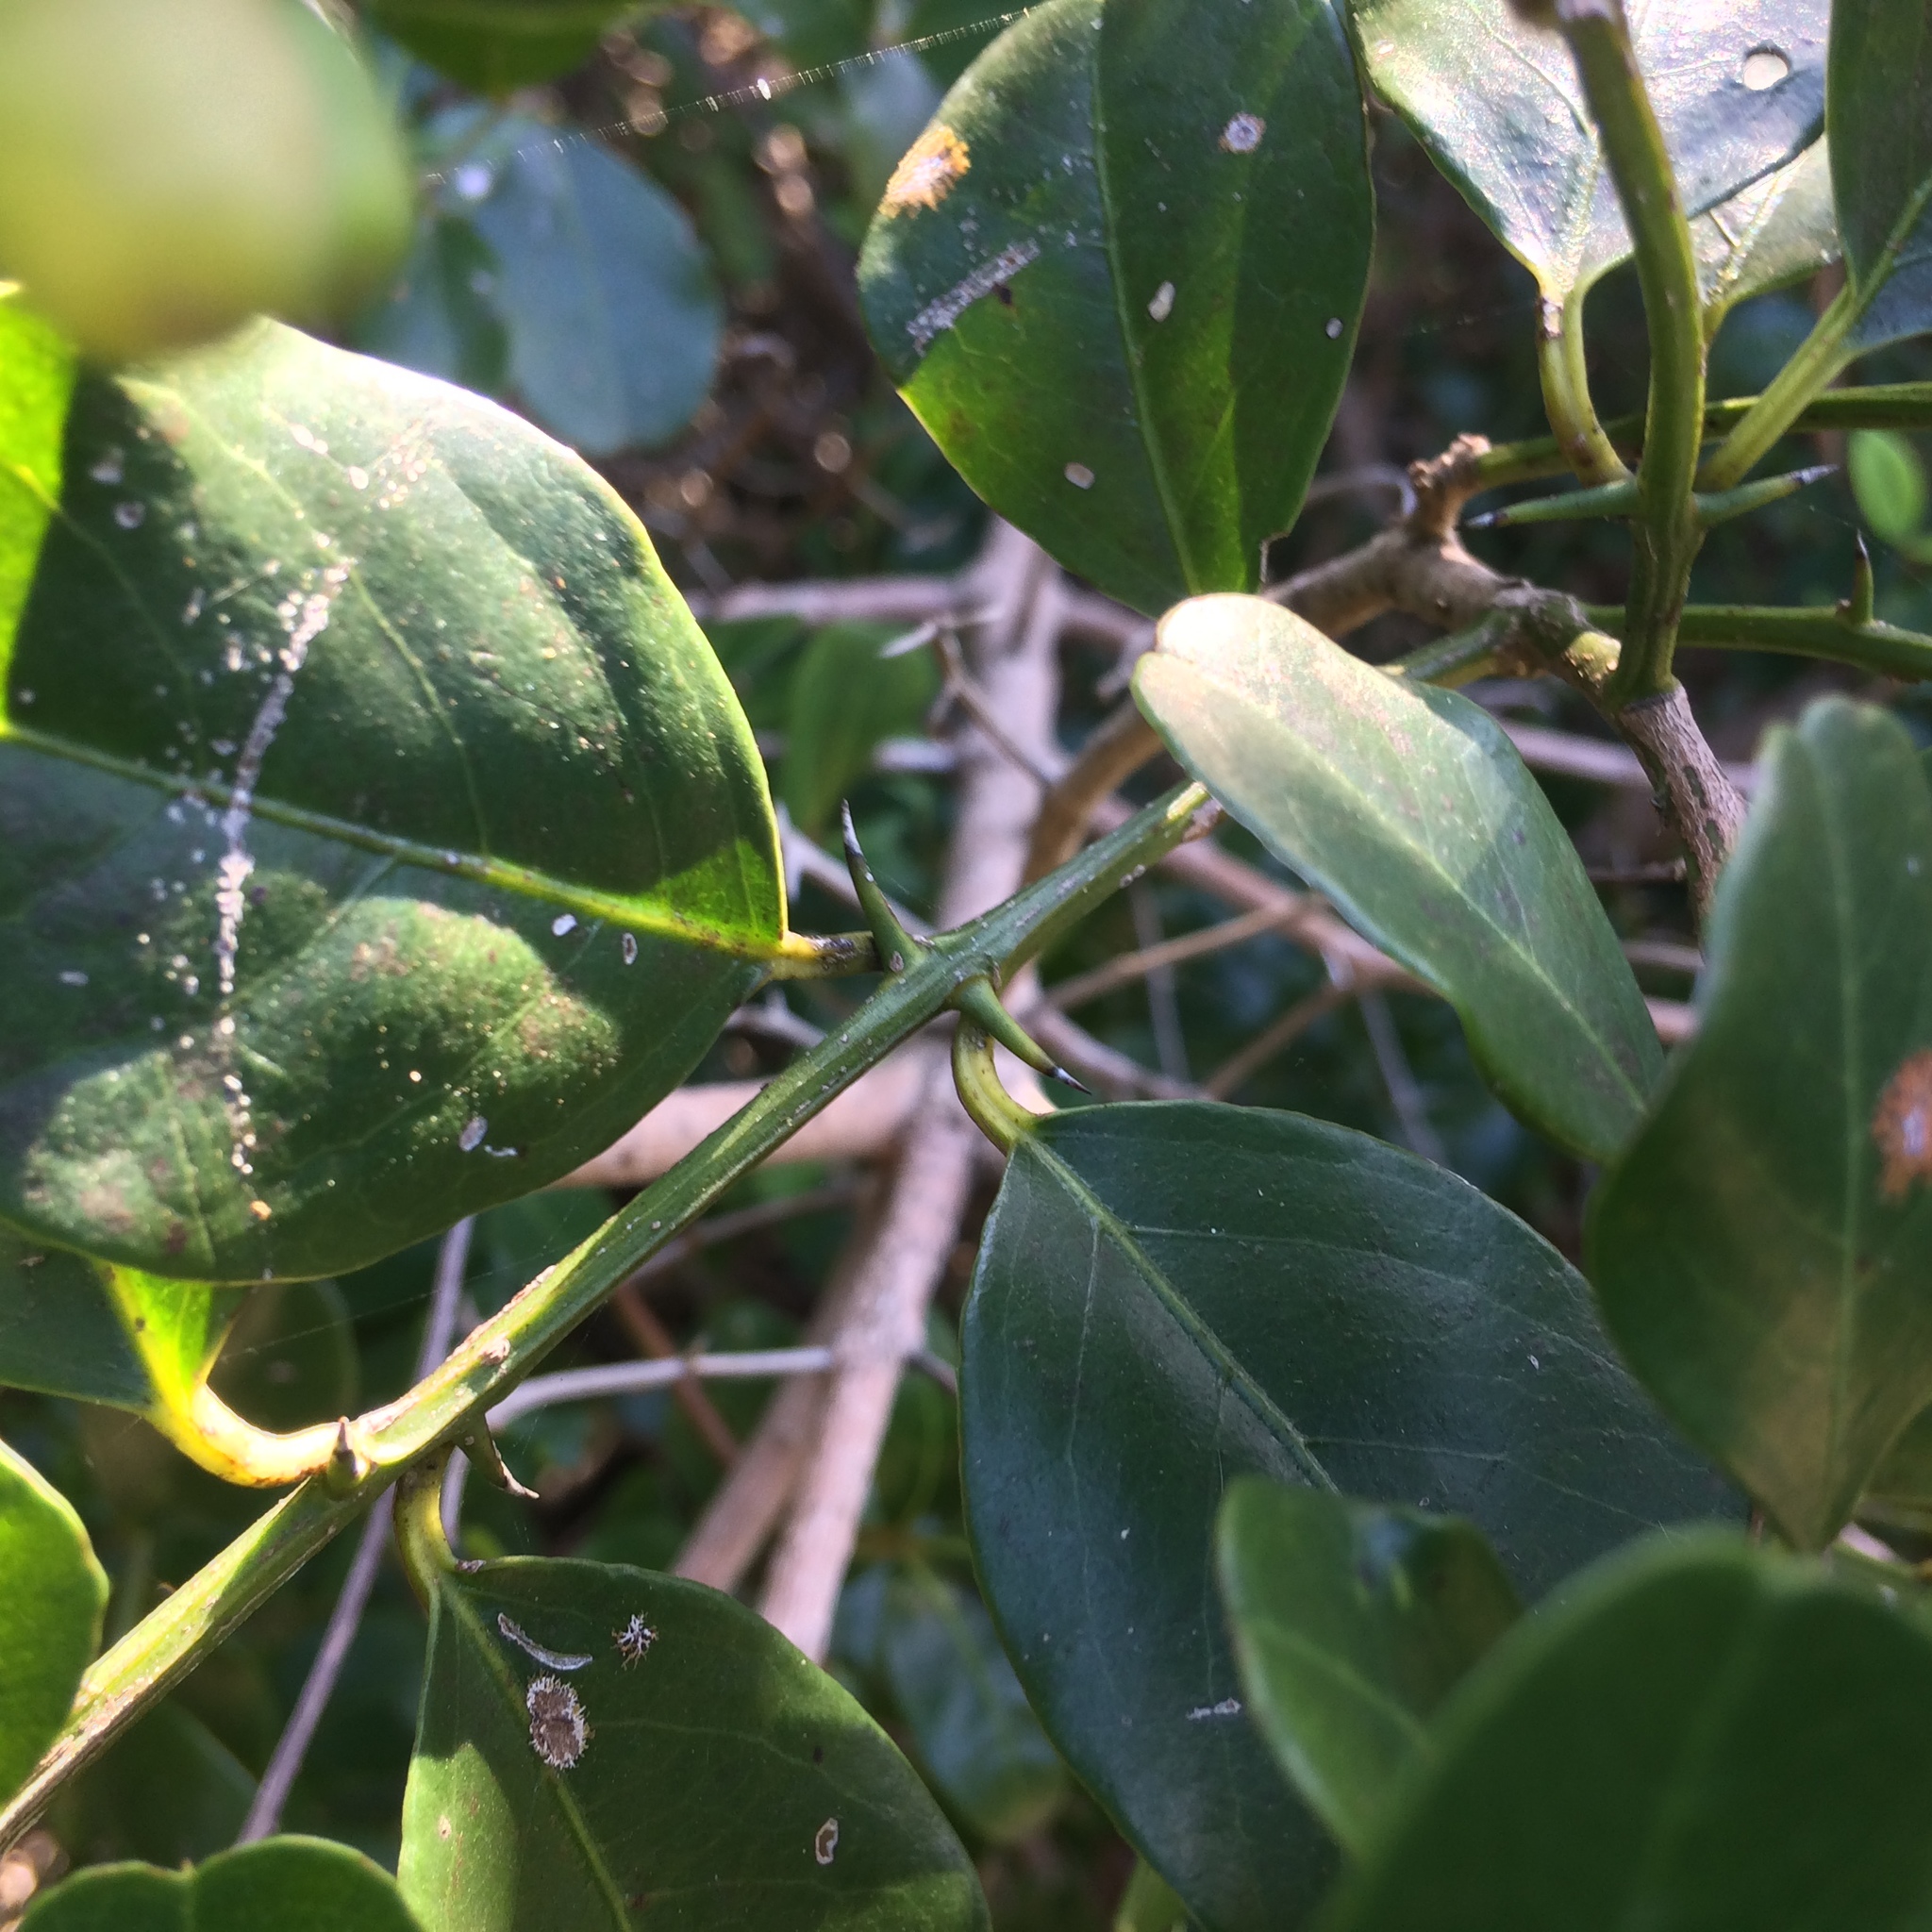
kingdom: Plantae
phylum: Tracheophyta
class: Magnoliopsida
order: Rosales
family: Rhamnaceae
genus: Scutia
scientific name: Scutia myrtina
